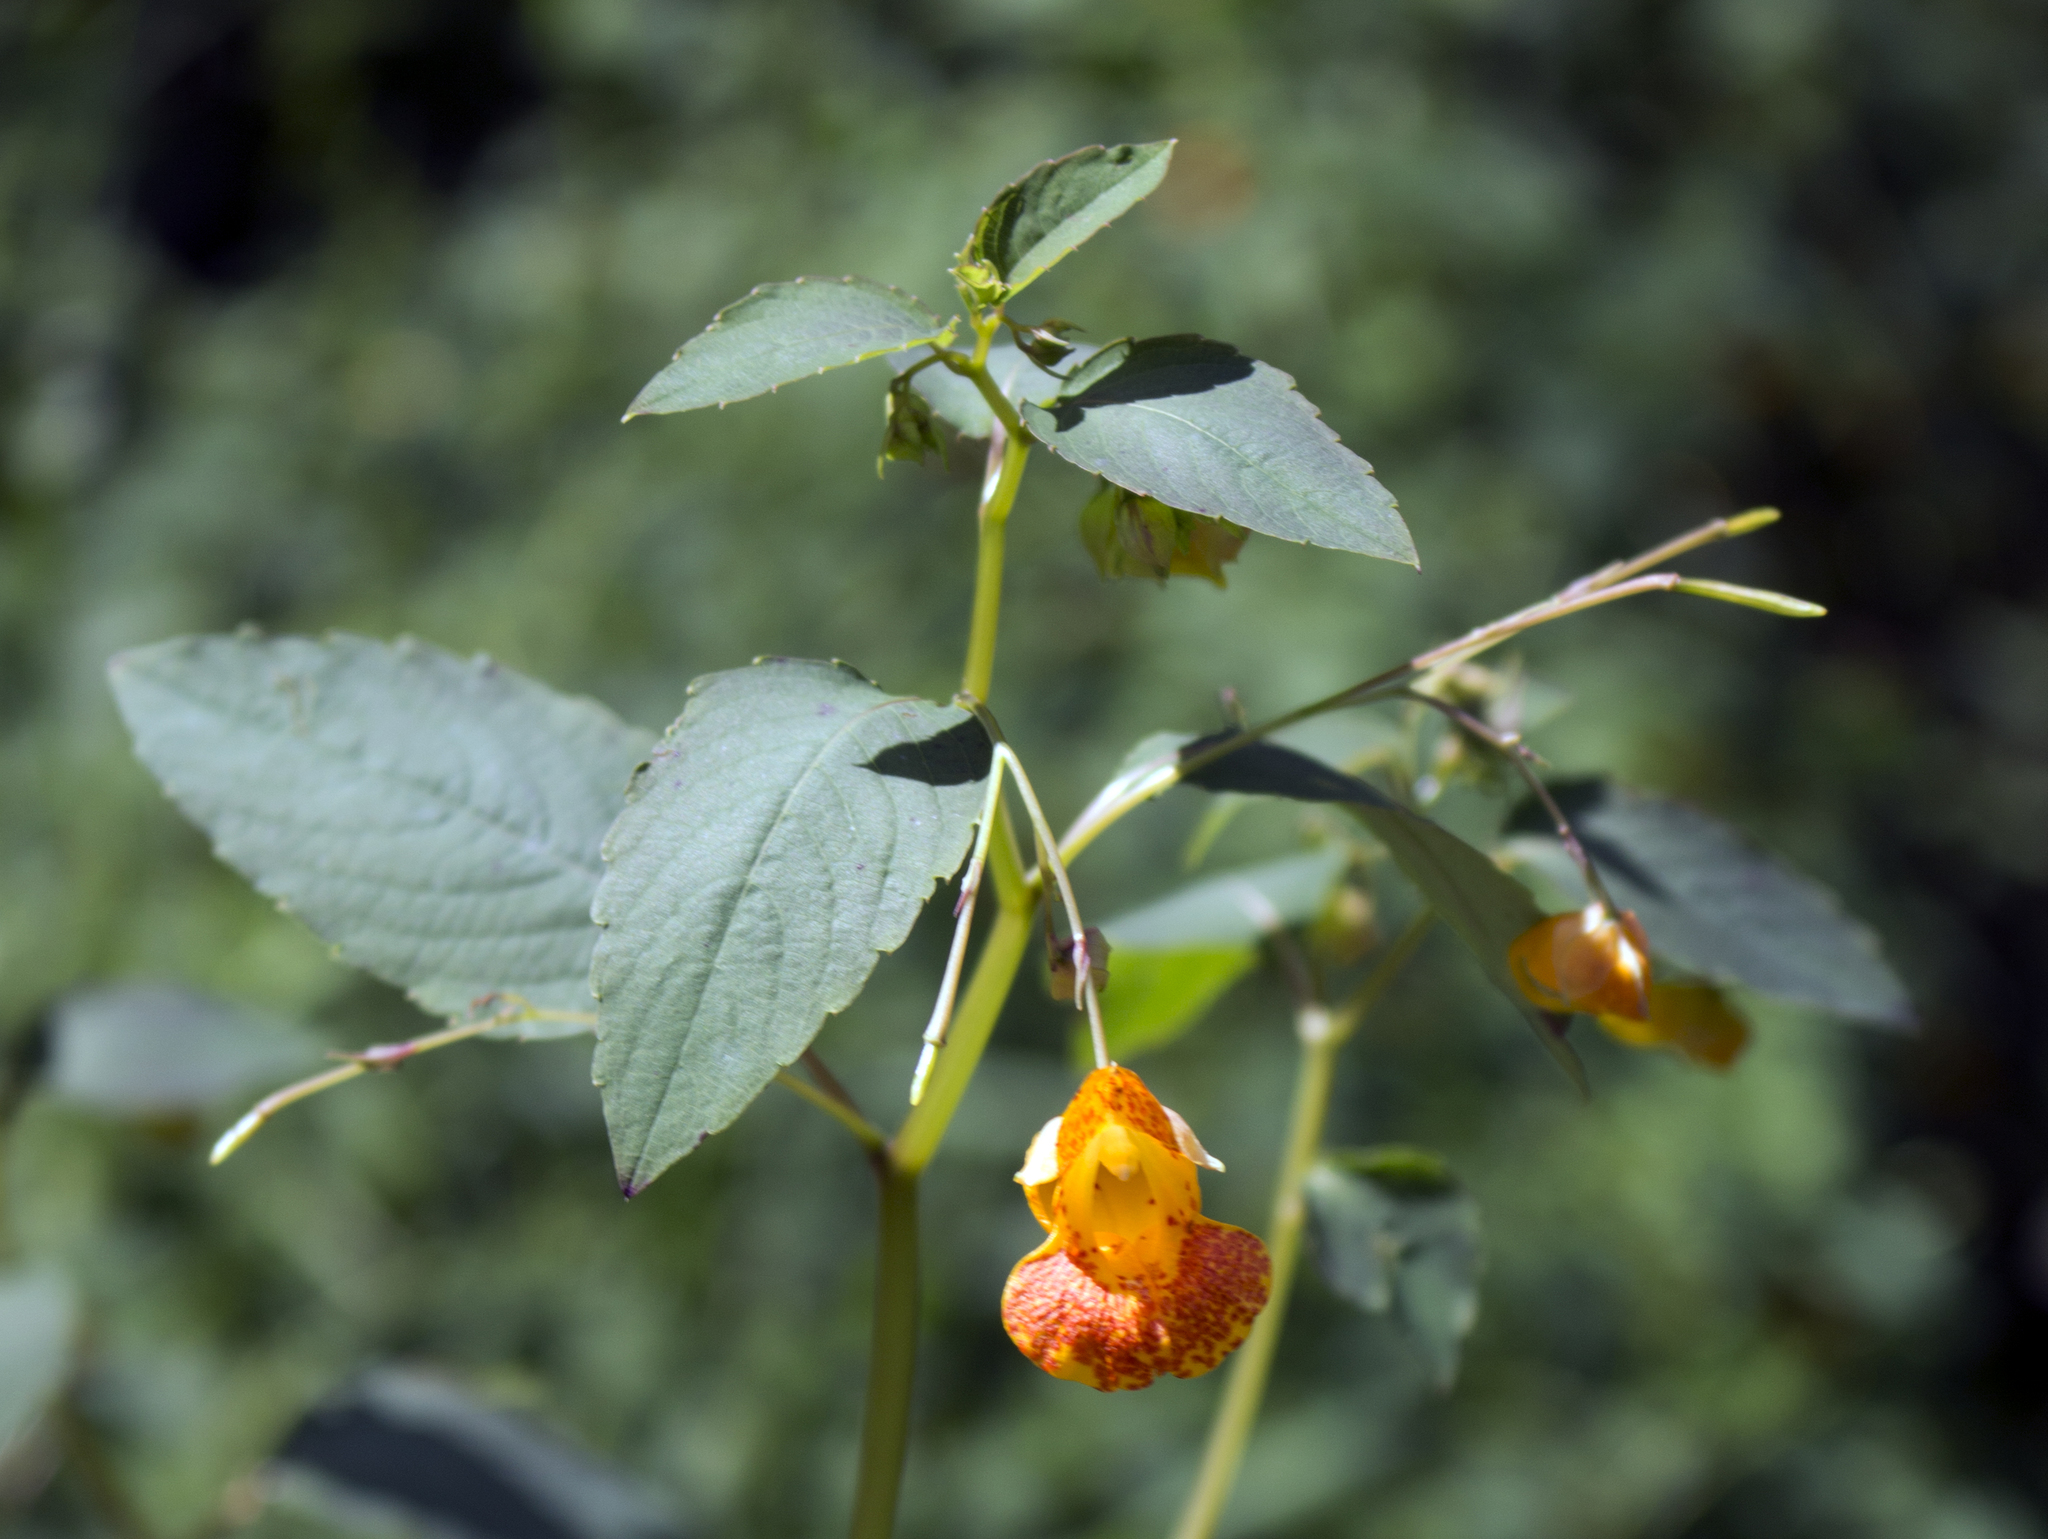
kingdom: Plantae
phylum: Tracheophyta
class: Magnoliopsida
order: Ericales
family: Balsaminaceae
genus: Impatiens
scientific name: Impatiens capensis
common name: Orange balsam
